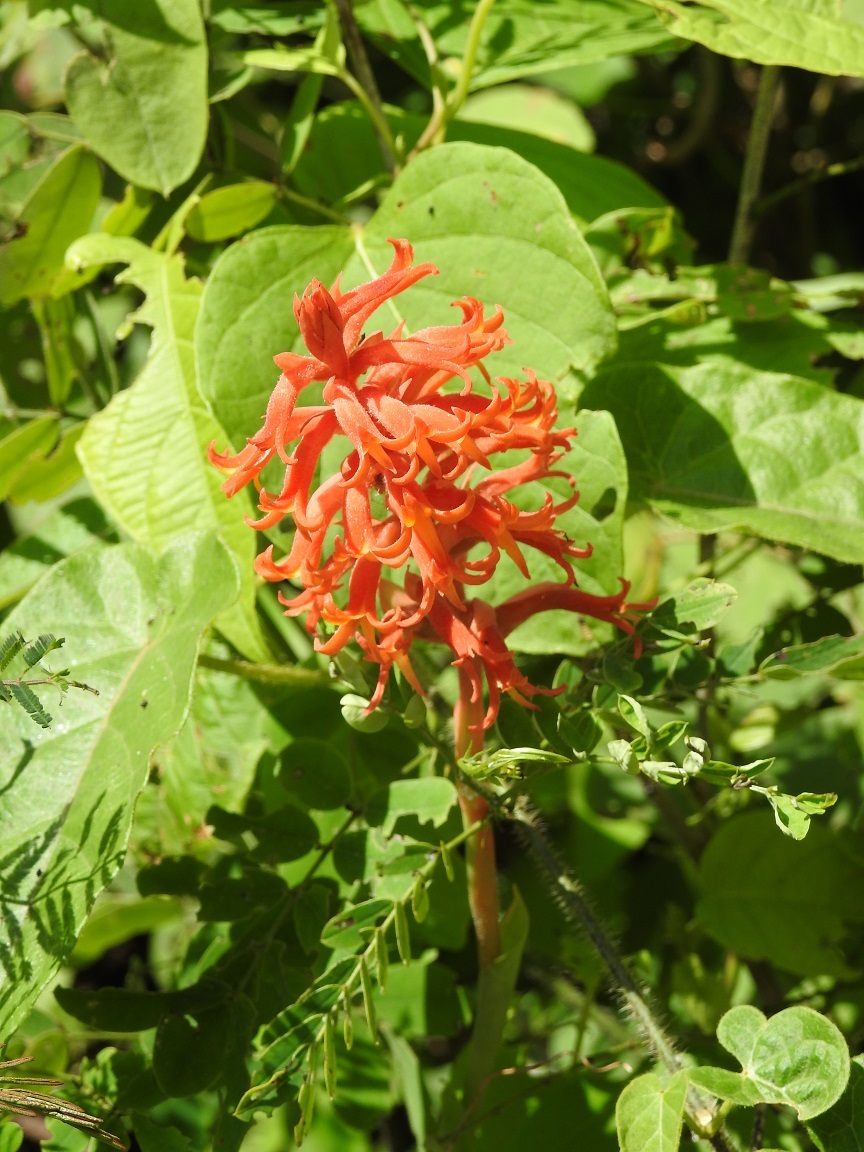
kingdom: Plantae
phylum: Tracheophyta
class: Liliopsida
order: Asparagales
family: Orchidaceae
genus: Dichromanthus
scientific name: Dichromanthus cinnabarinus
